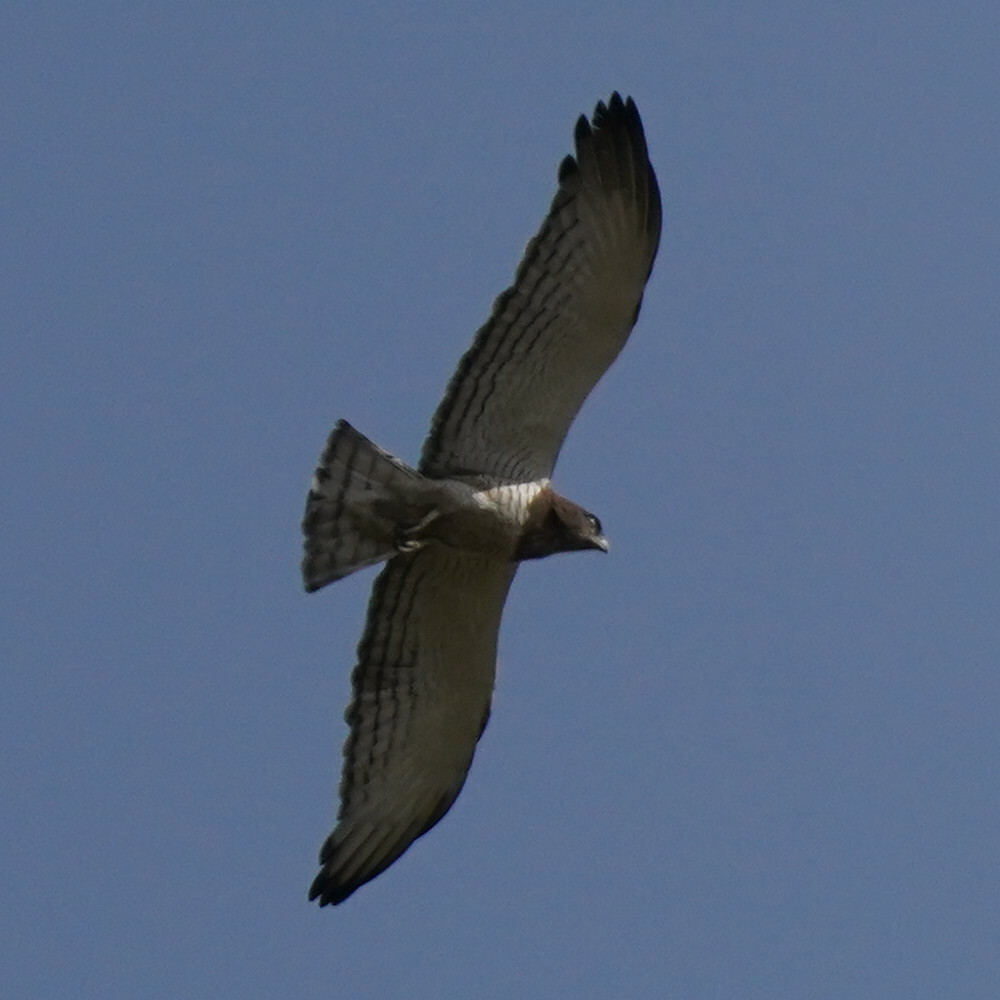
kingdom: Animalia
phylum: Chordata
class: Aves
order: Accipitriformes
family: Accipitridae
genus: Circaetus
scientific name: Circaetus beaudouini
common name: Beaudouin's snake eagle
